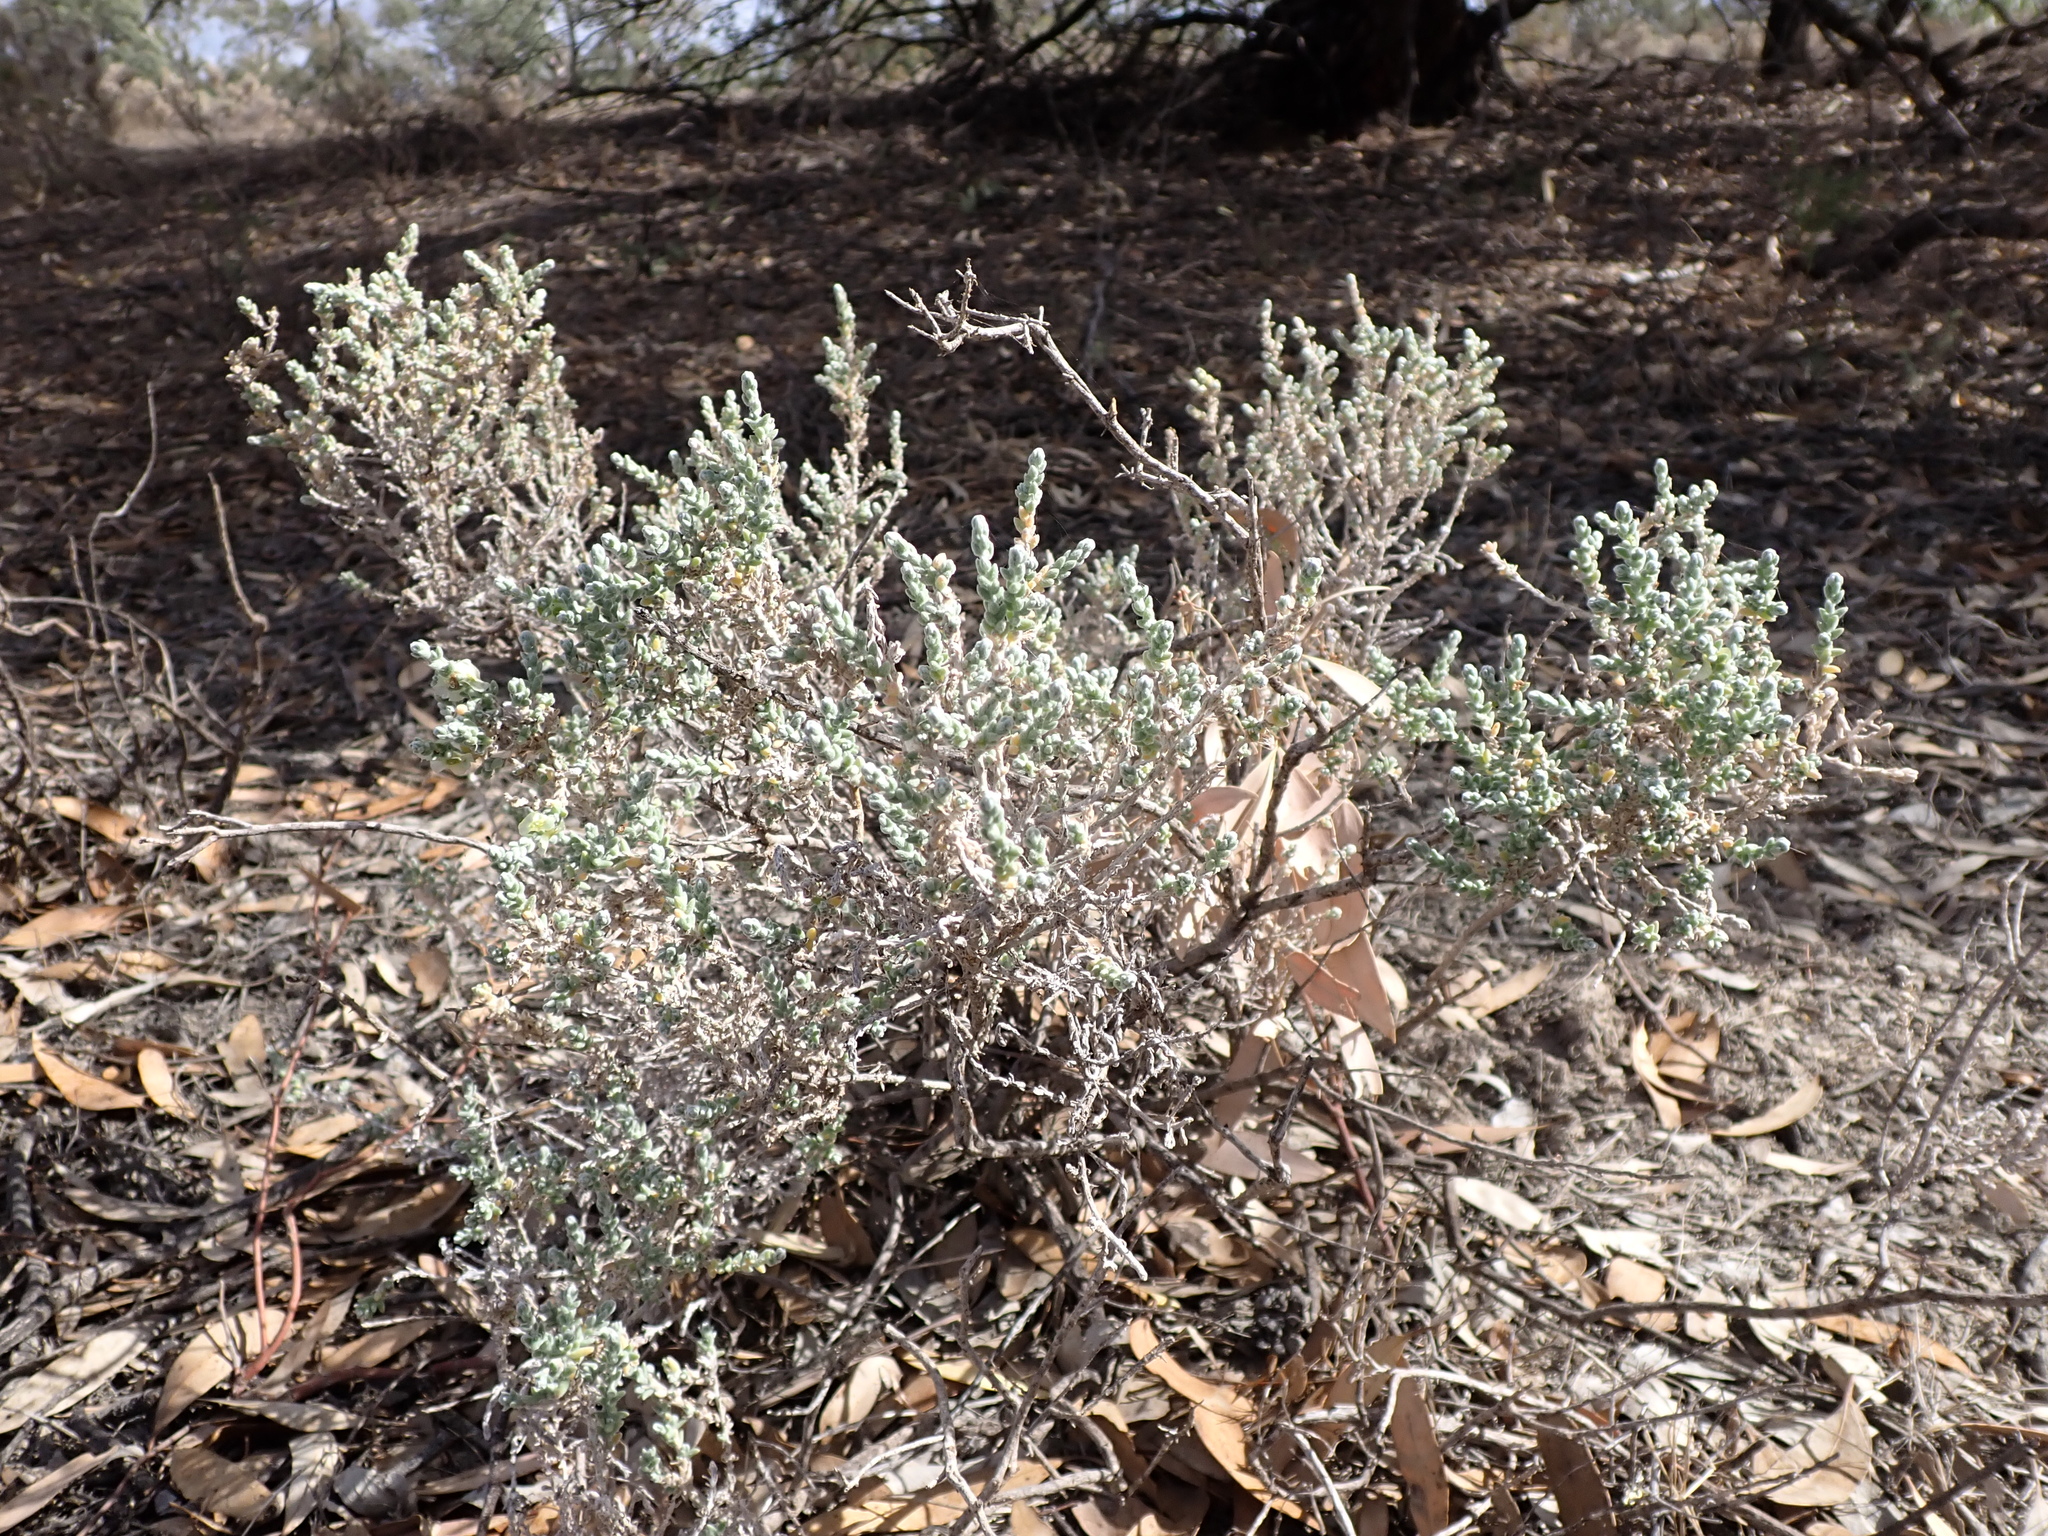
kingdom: Plantae
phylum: Tracheophyta
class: Magnoliopsida
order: Caryophyllales
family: Amaranthaceae
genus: Maireana
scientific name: Maireana appressa
